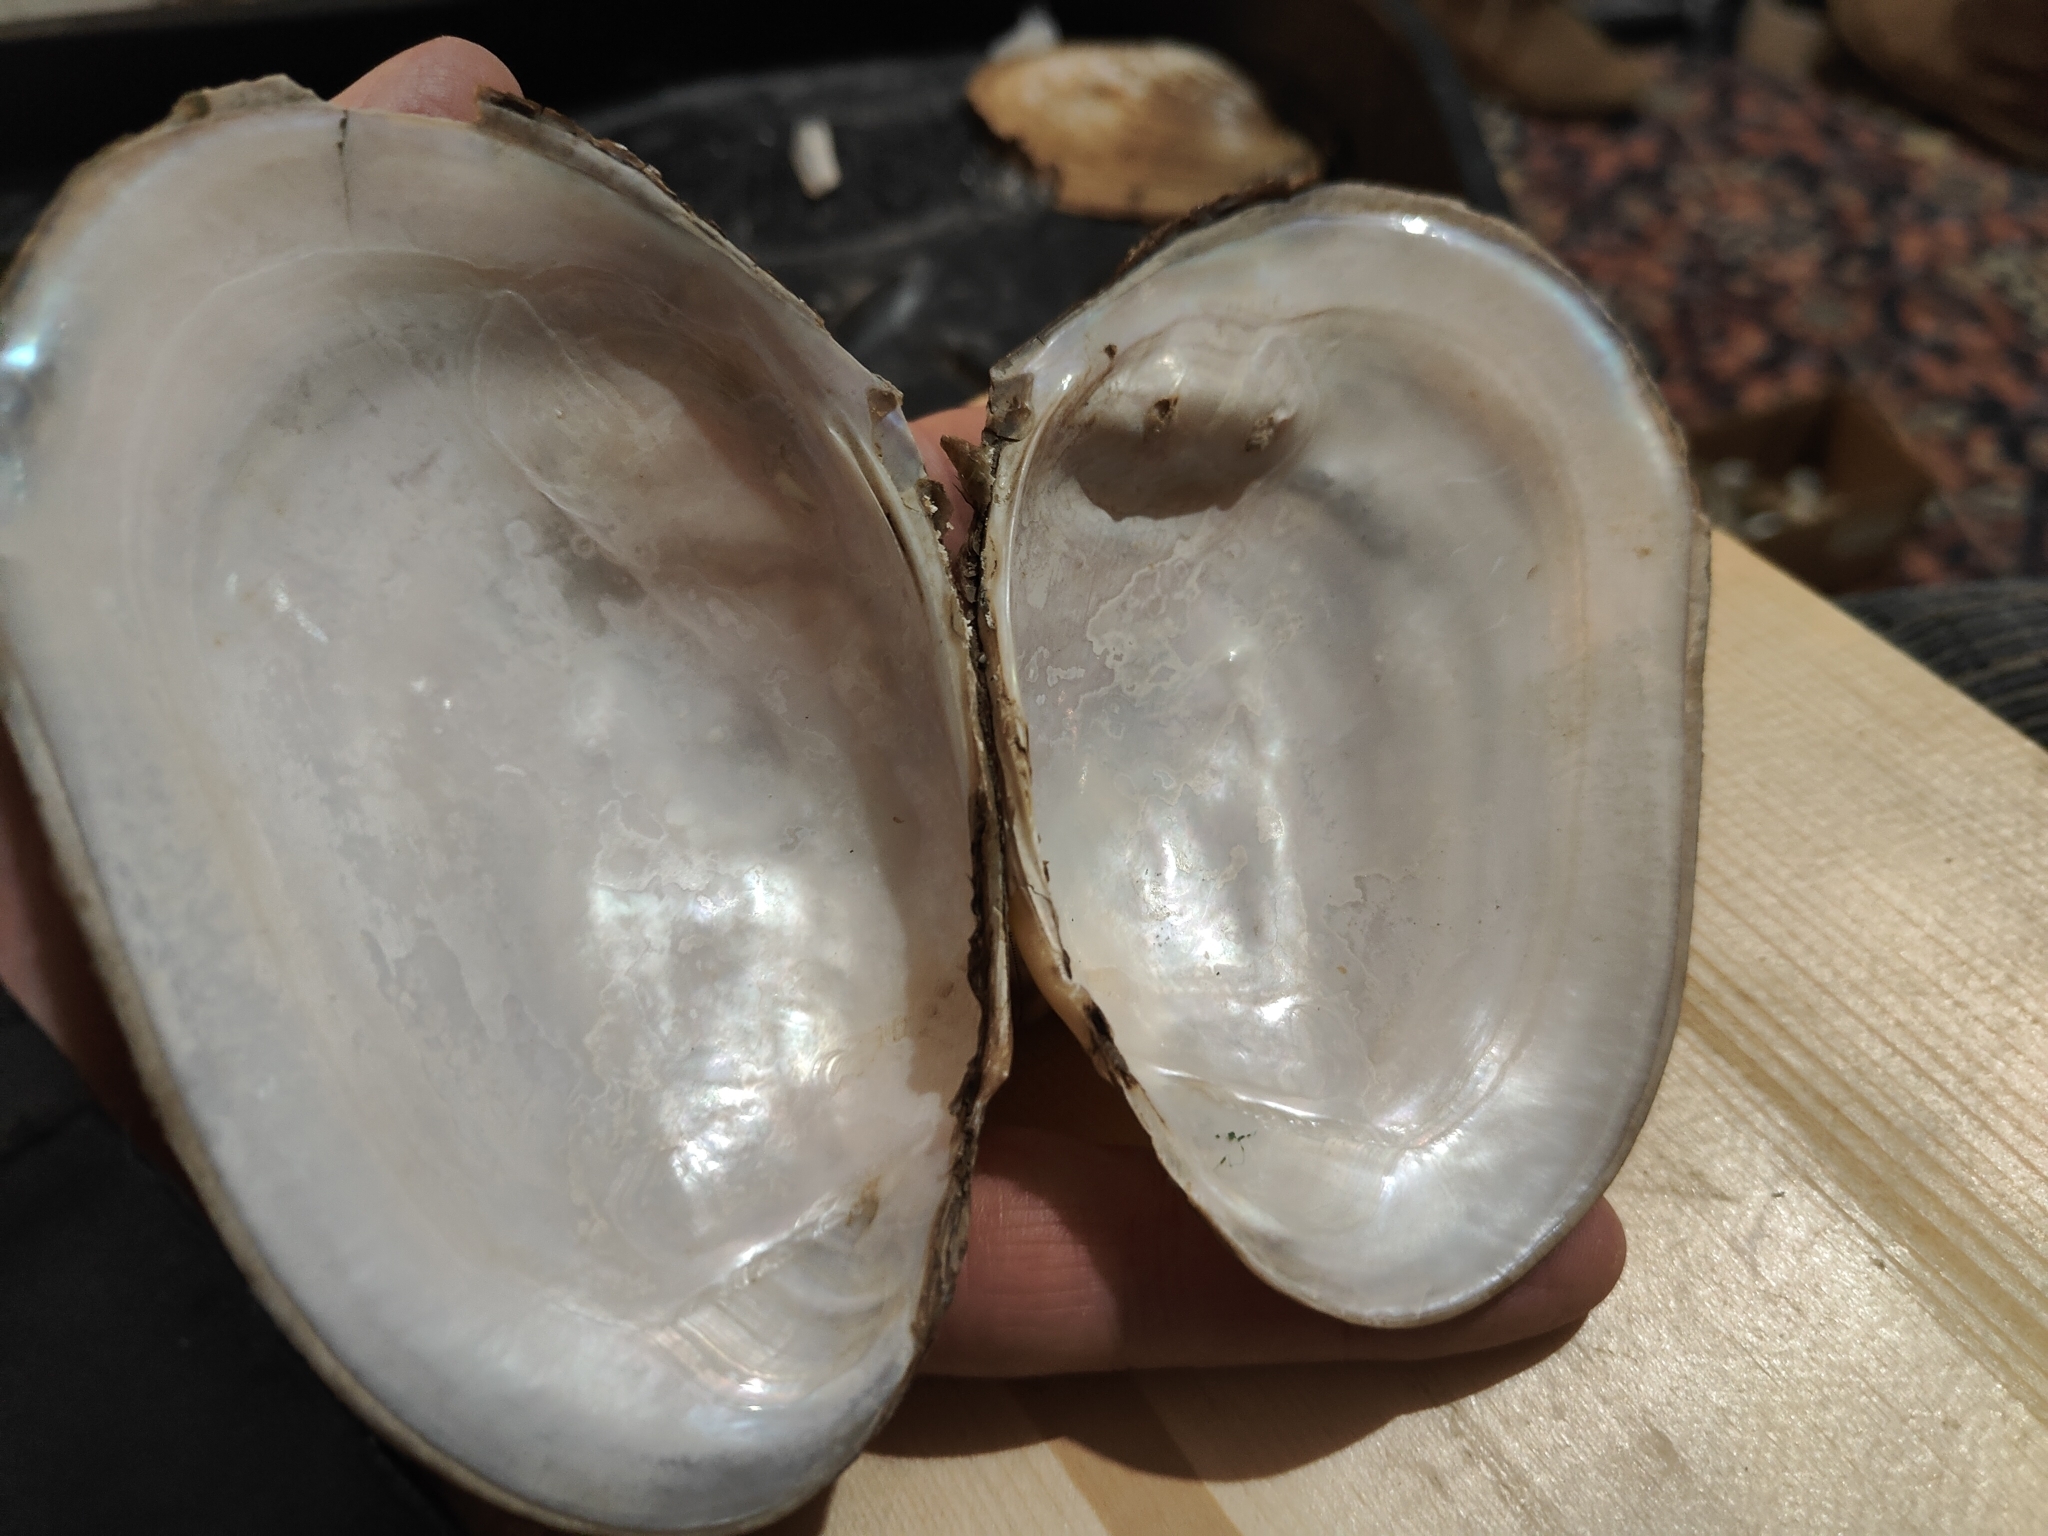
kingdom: Animalia
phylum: Mollusca
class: Bivalvia
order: Unionida
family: Unionidae
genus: Potamilus
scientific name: Potamilus fragilis
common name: Fragile papershell
